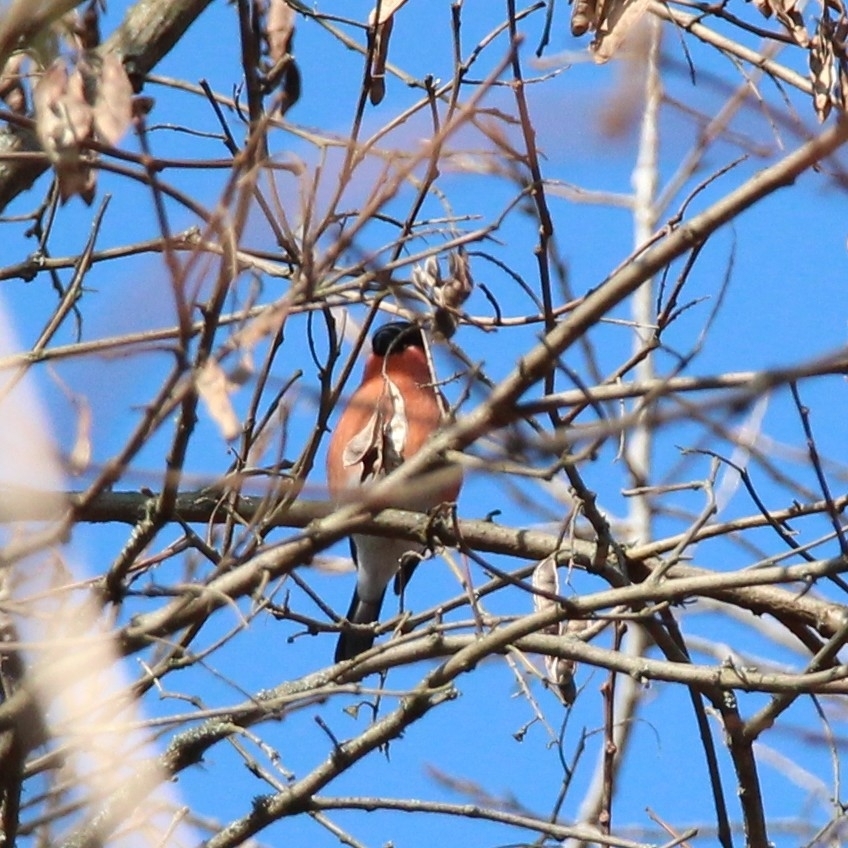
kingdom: Animalia
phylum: Chordata
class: Aves
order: Passeriformes
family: Fringillidae
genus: Pyrrhula
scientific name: Pyrrhula pyrrhula
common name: Eurasian bullfinch
